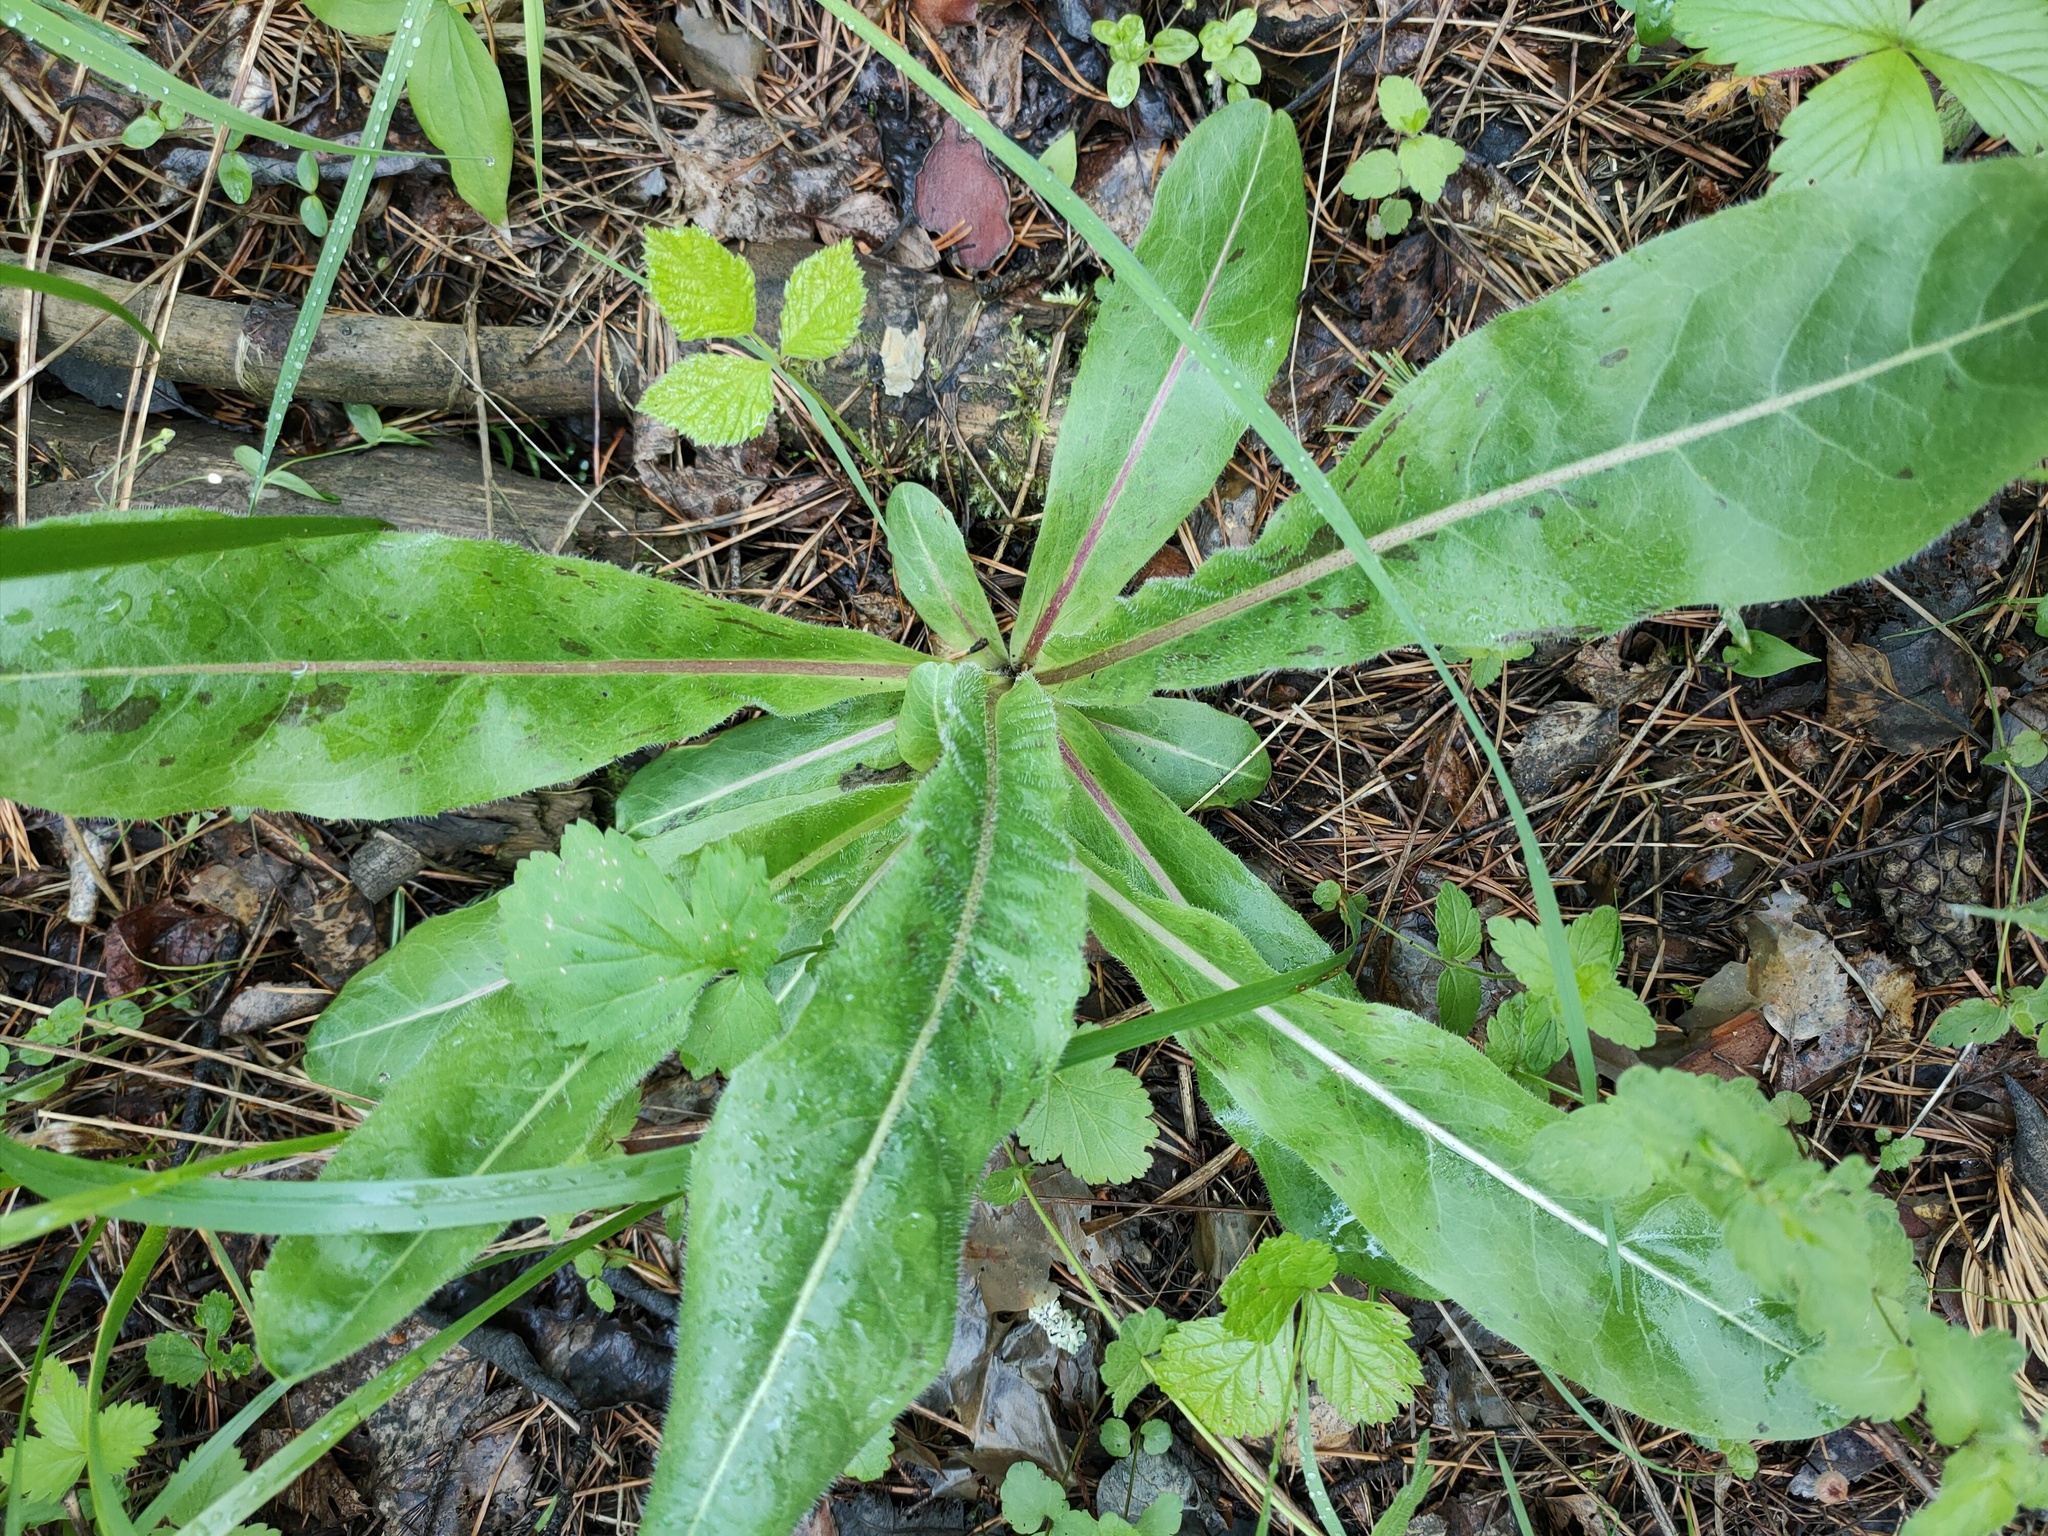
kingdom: Plantae
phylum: Tracheophyta
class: Magnoliopsida
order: Asterales
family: Asteraceae
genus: Trommsdorffia
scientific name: Trommsdorffia maculata
